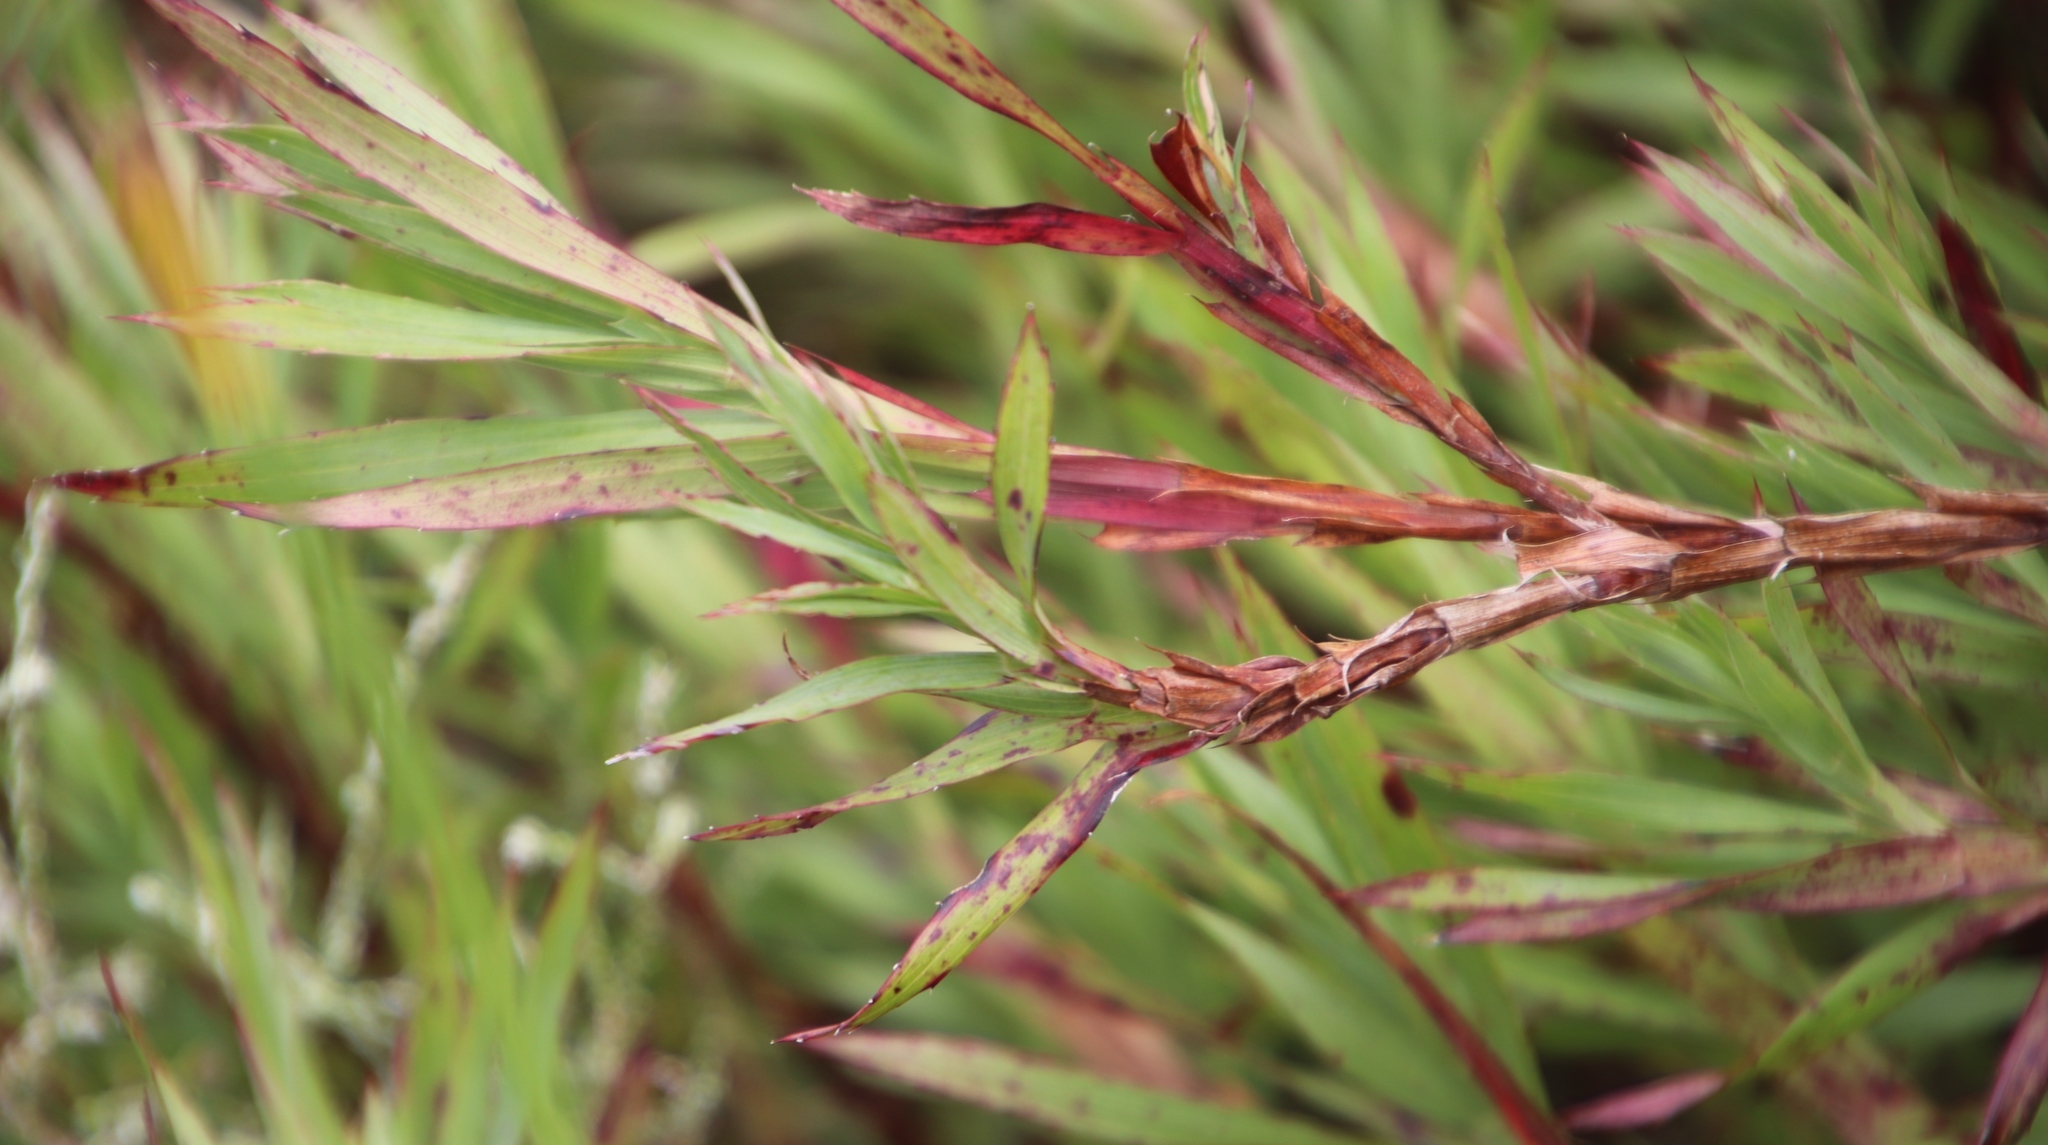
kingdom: Plantae
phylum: Tracheophyta
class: Magnoliopsida
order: Rosales
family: Rosaceae
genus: Cliffortia
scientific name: Cliffortia graminea
